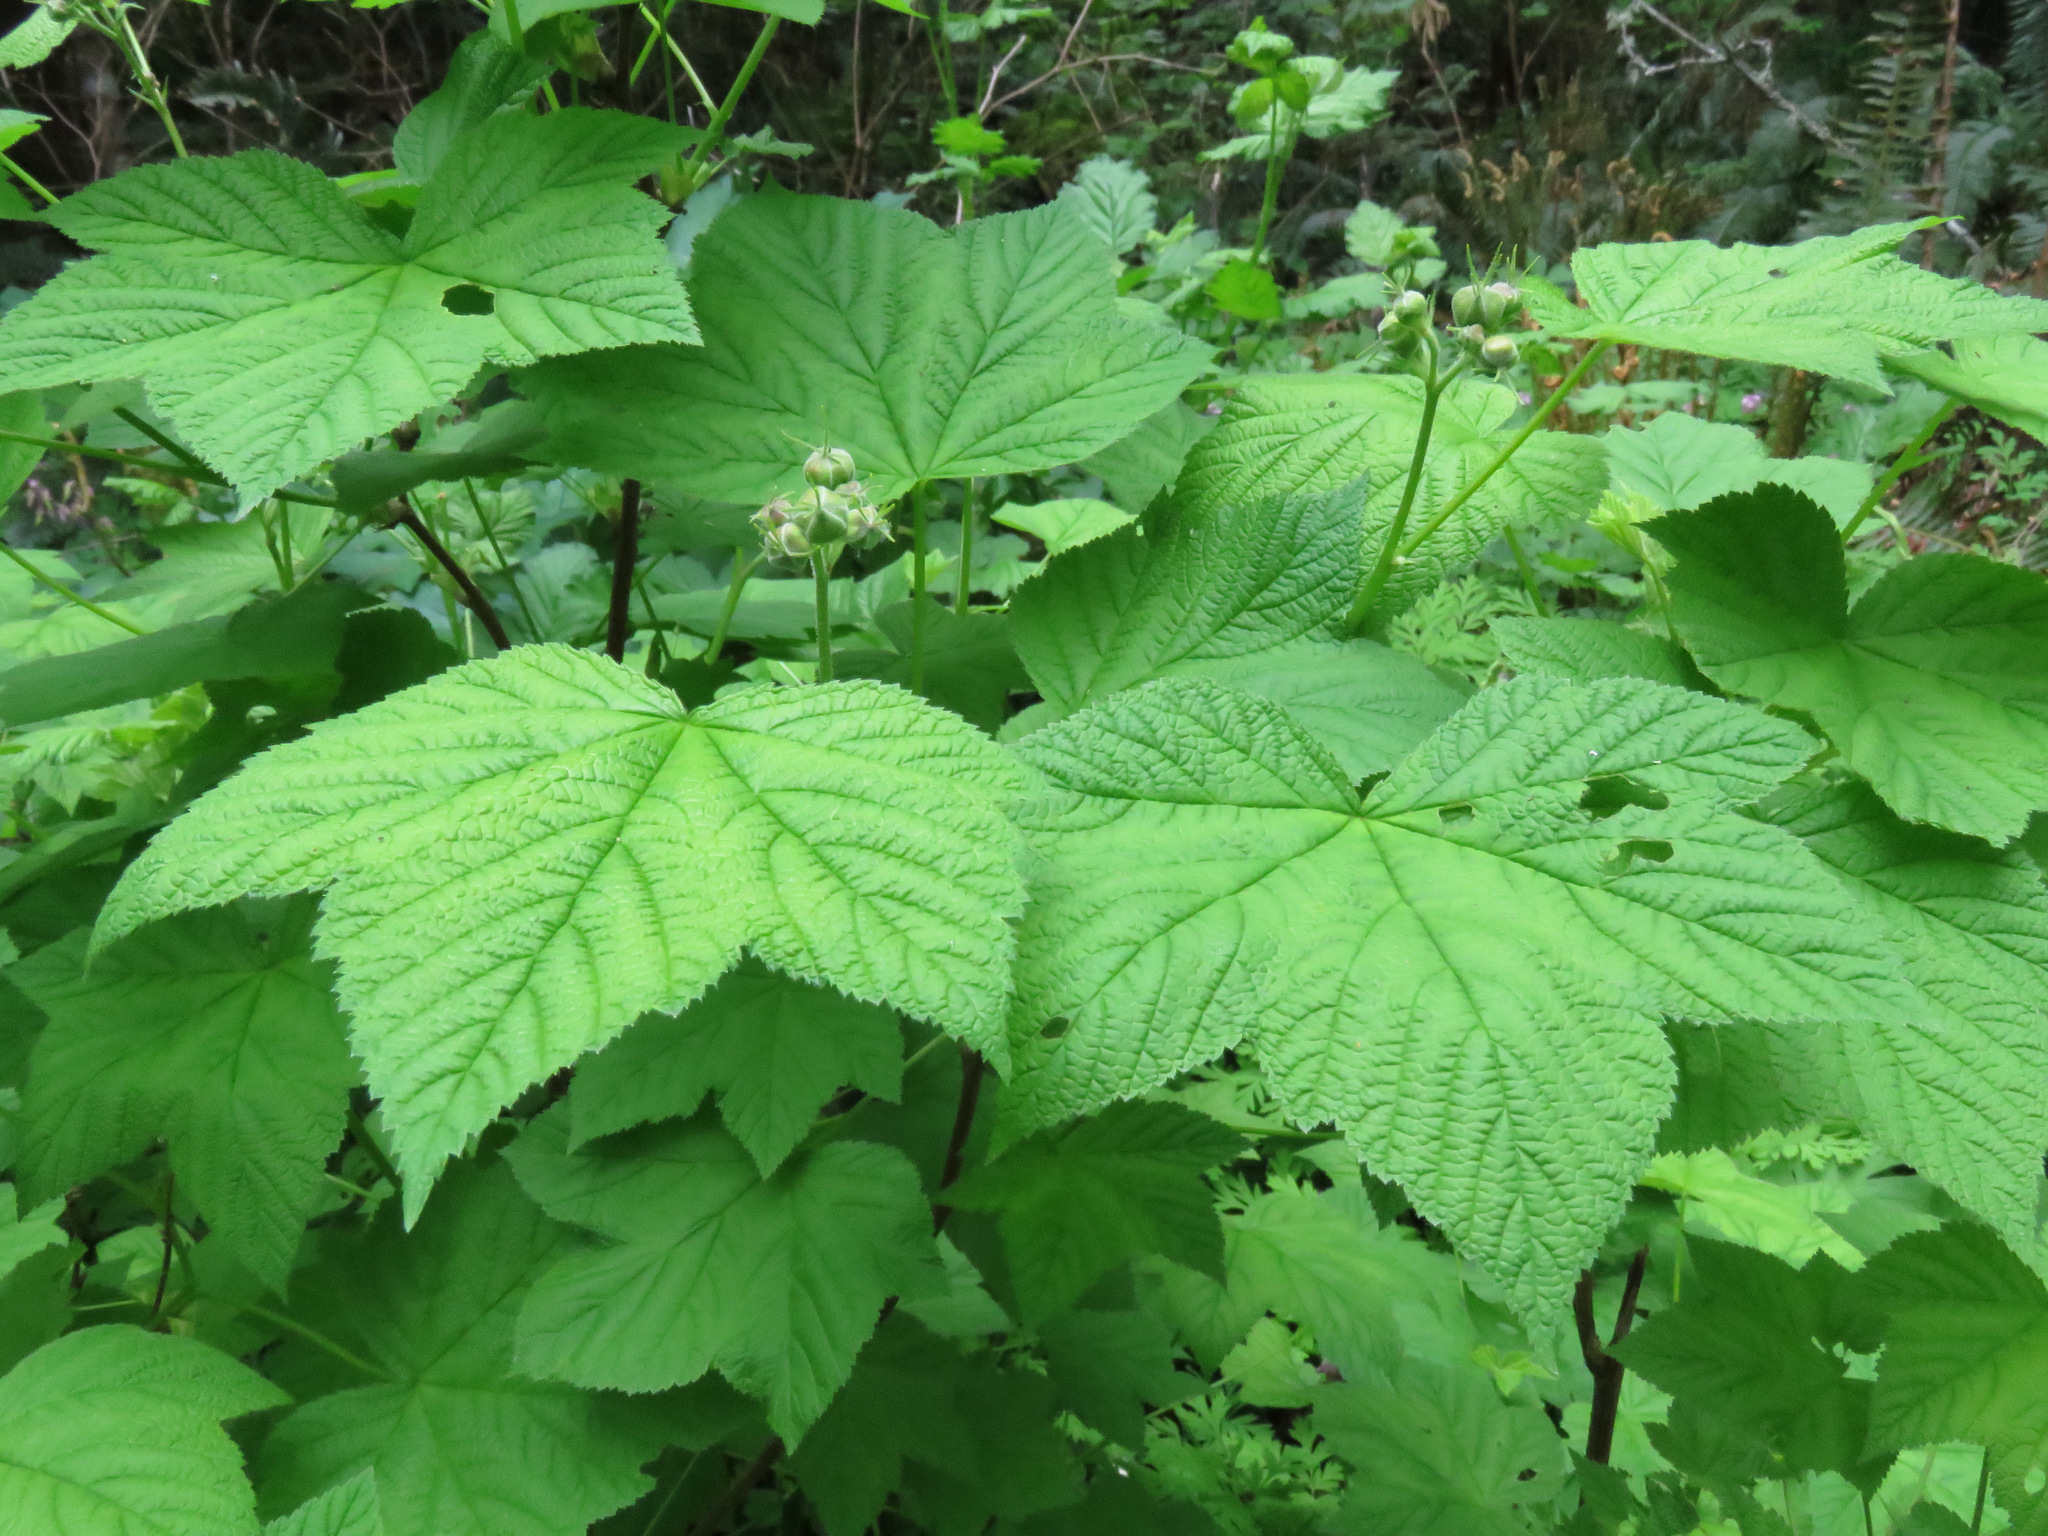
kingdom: Plantae
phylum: Tracheophyta
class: Magnoliopsida
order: Rosales
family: Rosaceae
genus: Rubus
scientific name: Rubus parviflorus
